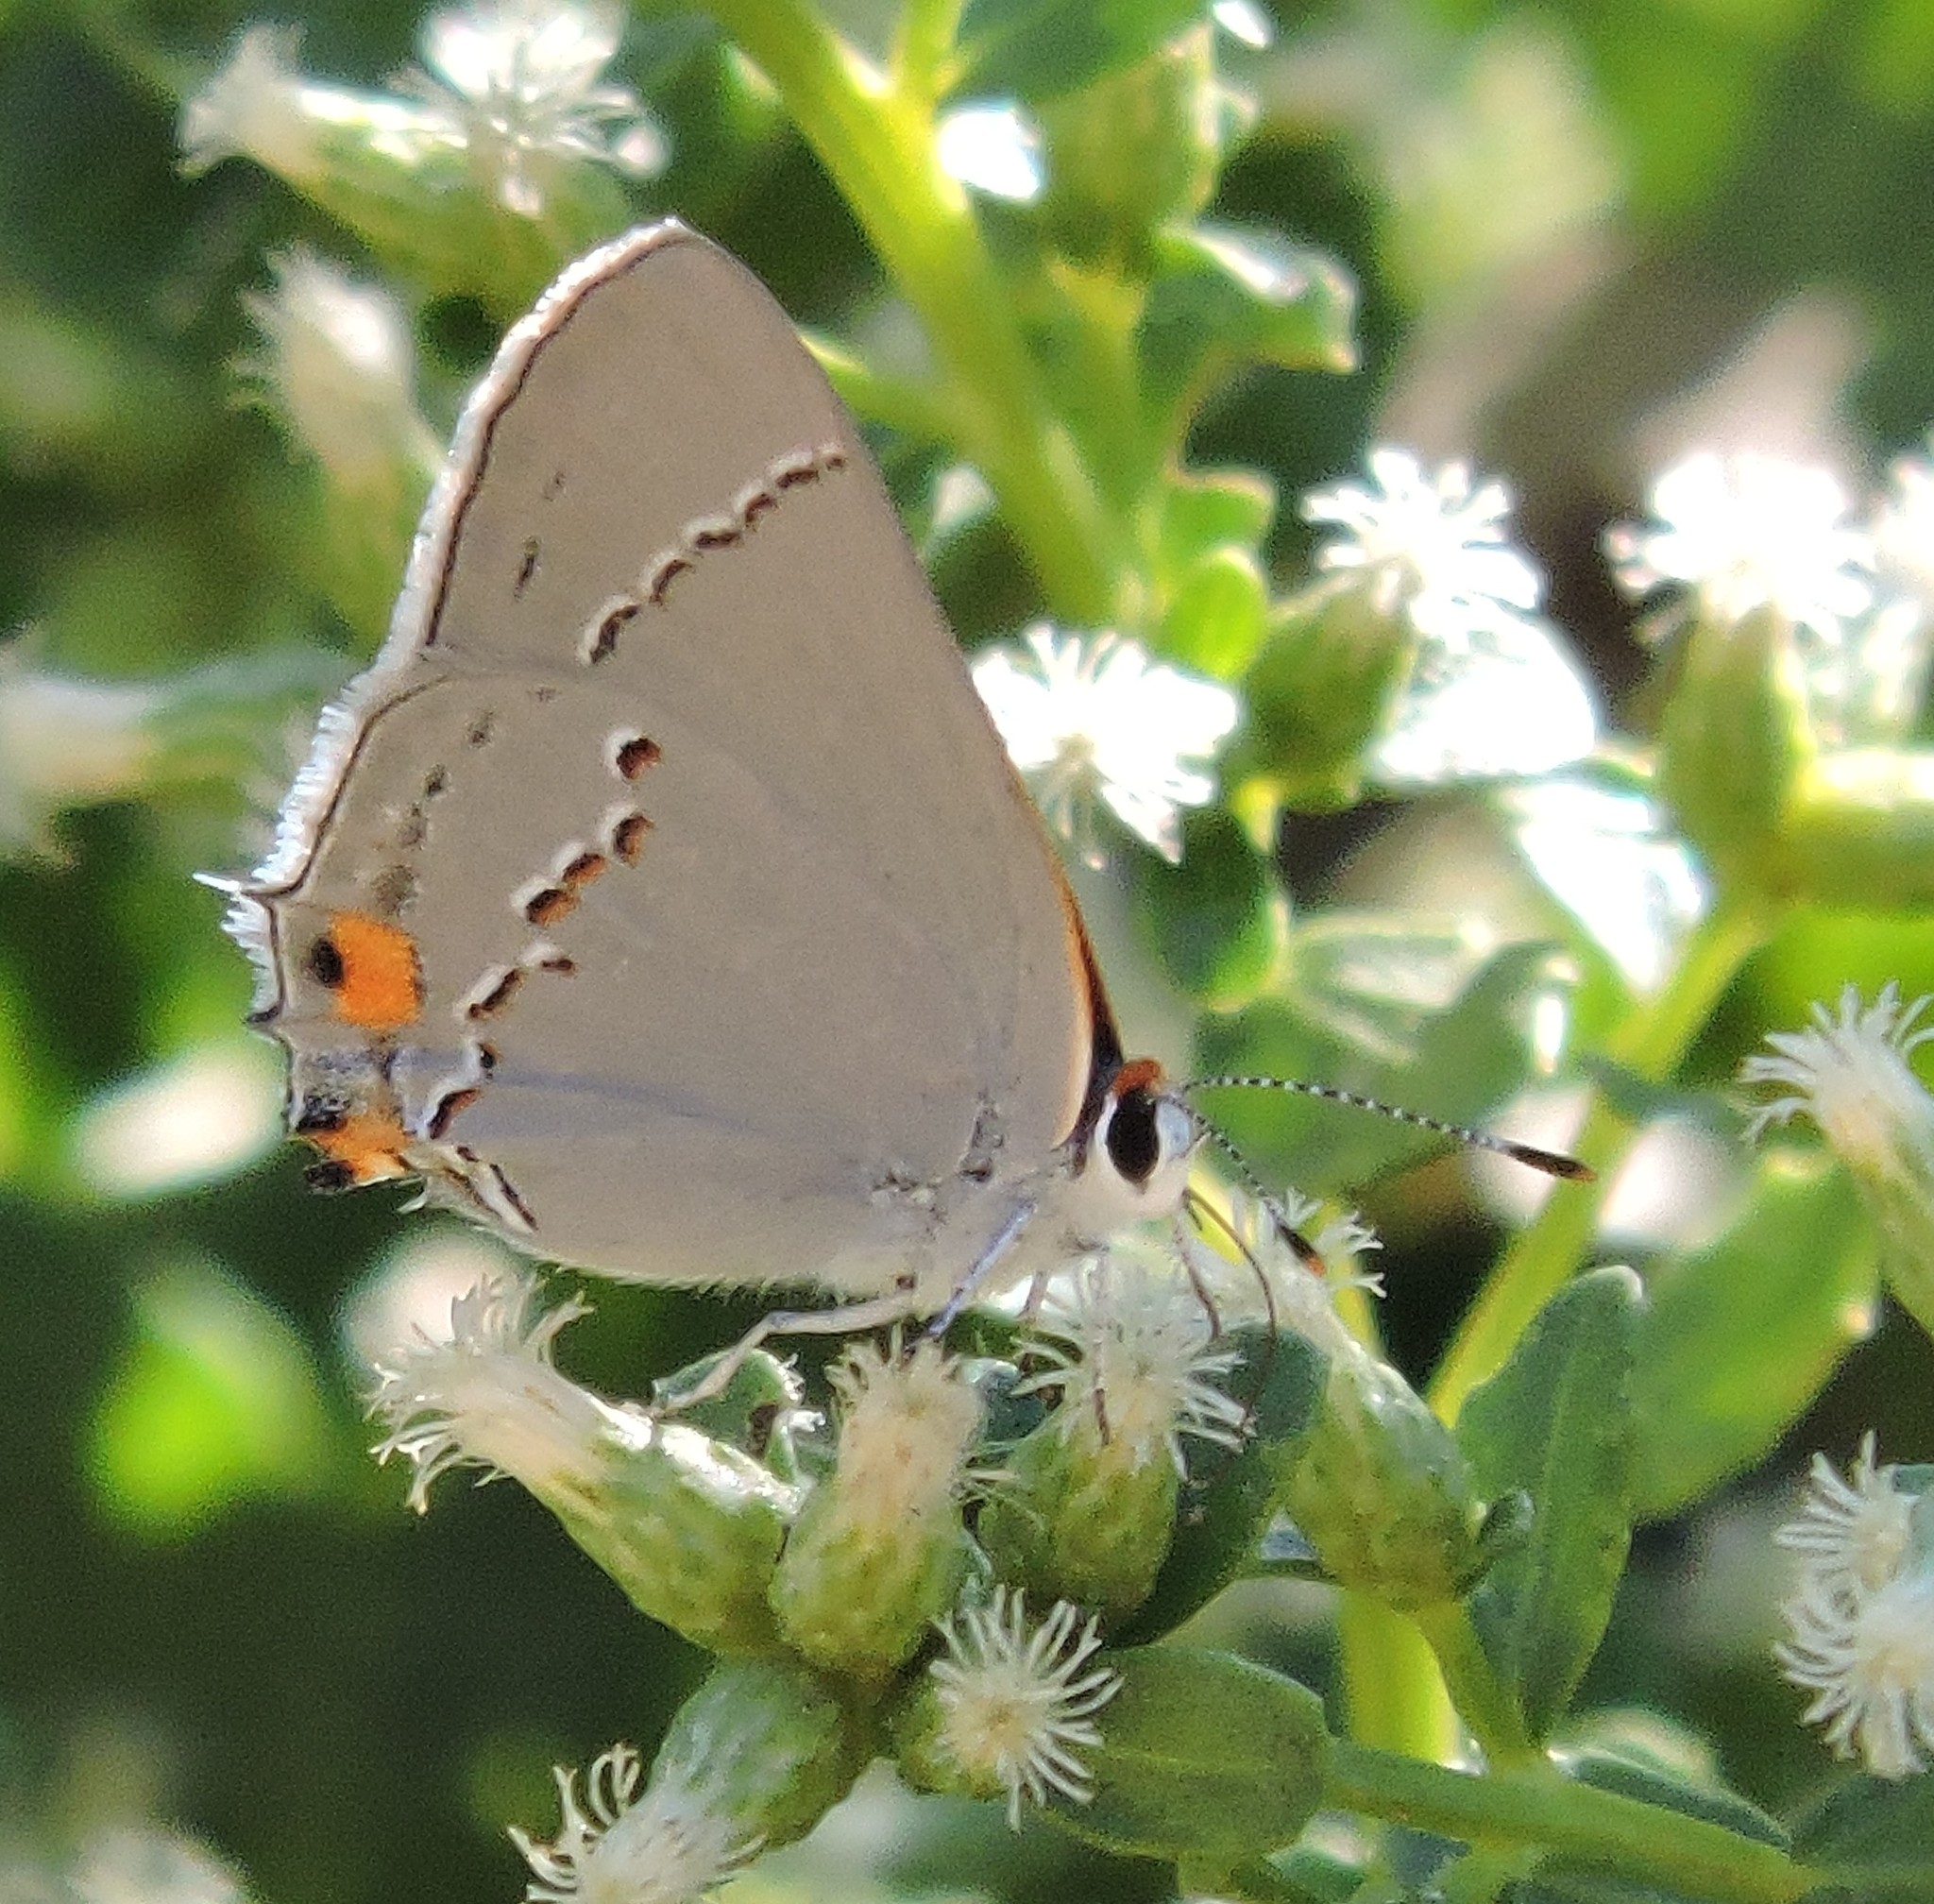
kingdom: Animalia
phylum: Arthropoda
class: Insecta
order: Lepidoptera
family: Lycaenidae
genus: Strymon
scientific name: Strymon melinus
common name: Gray hairstreak
